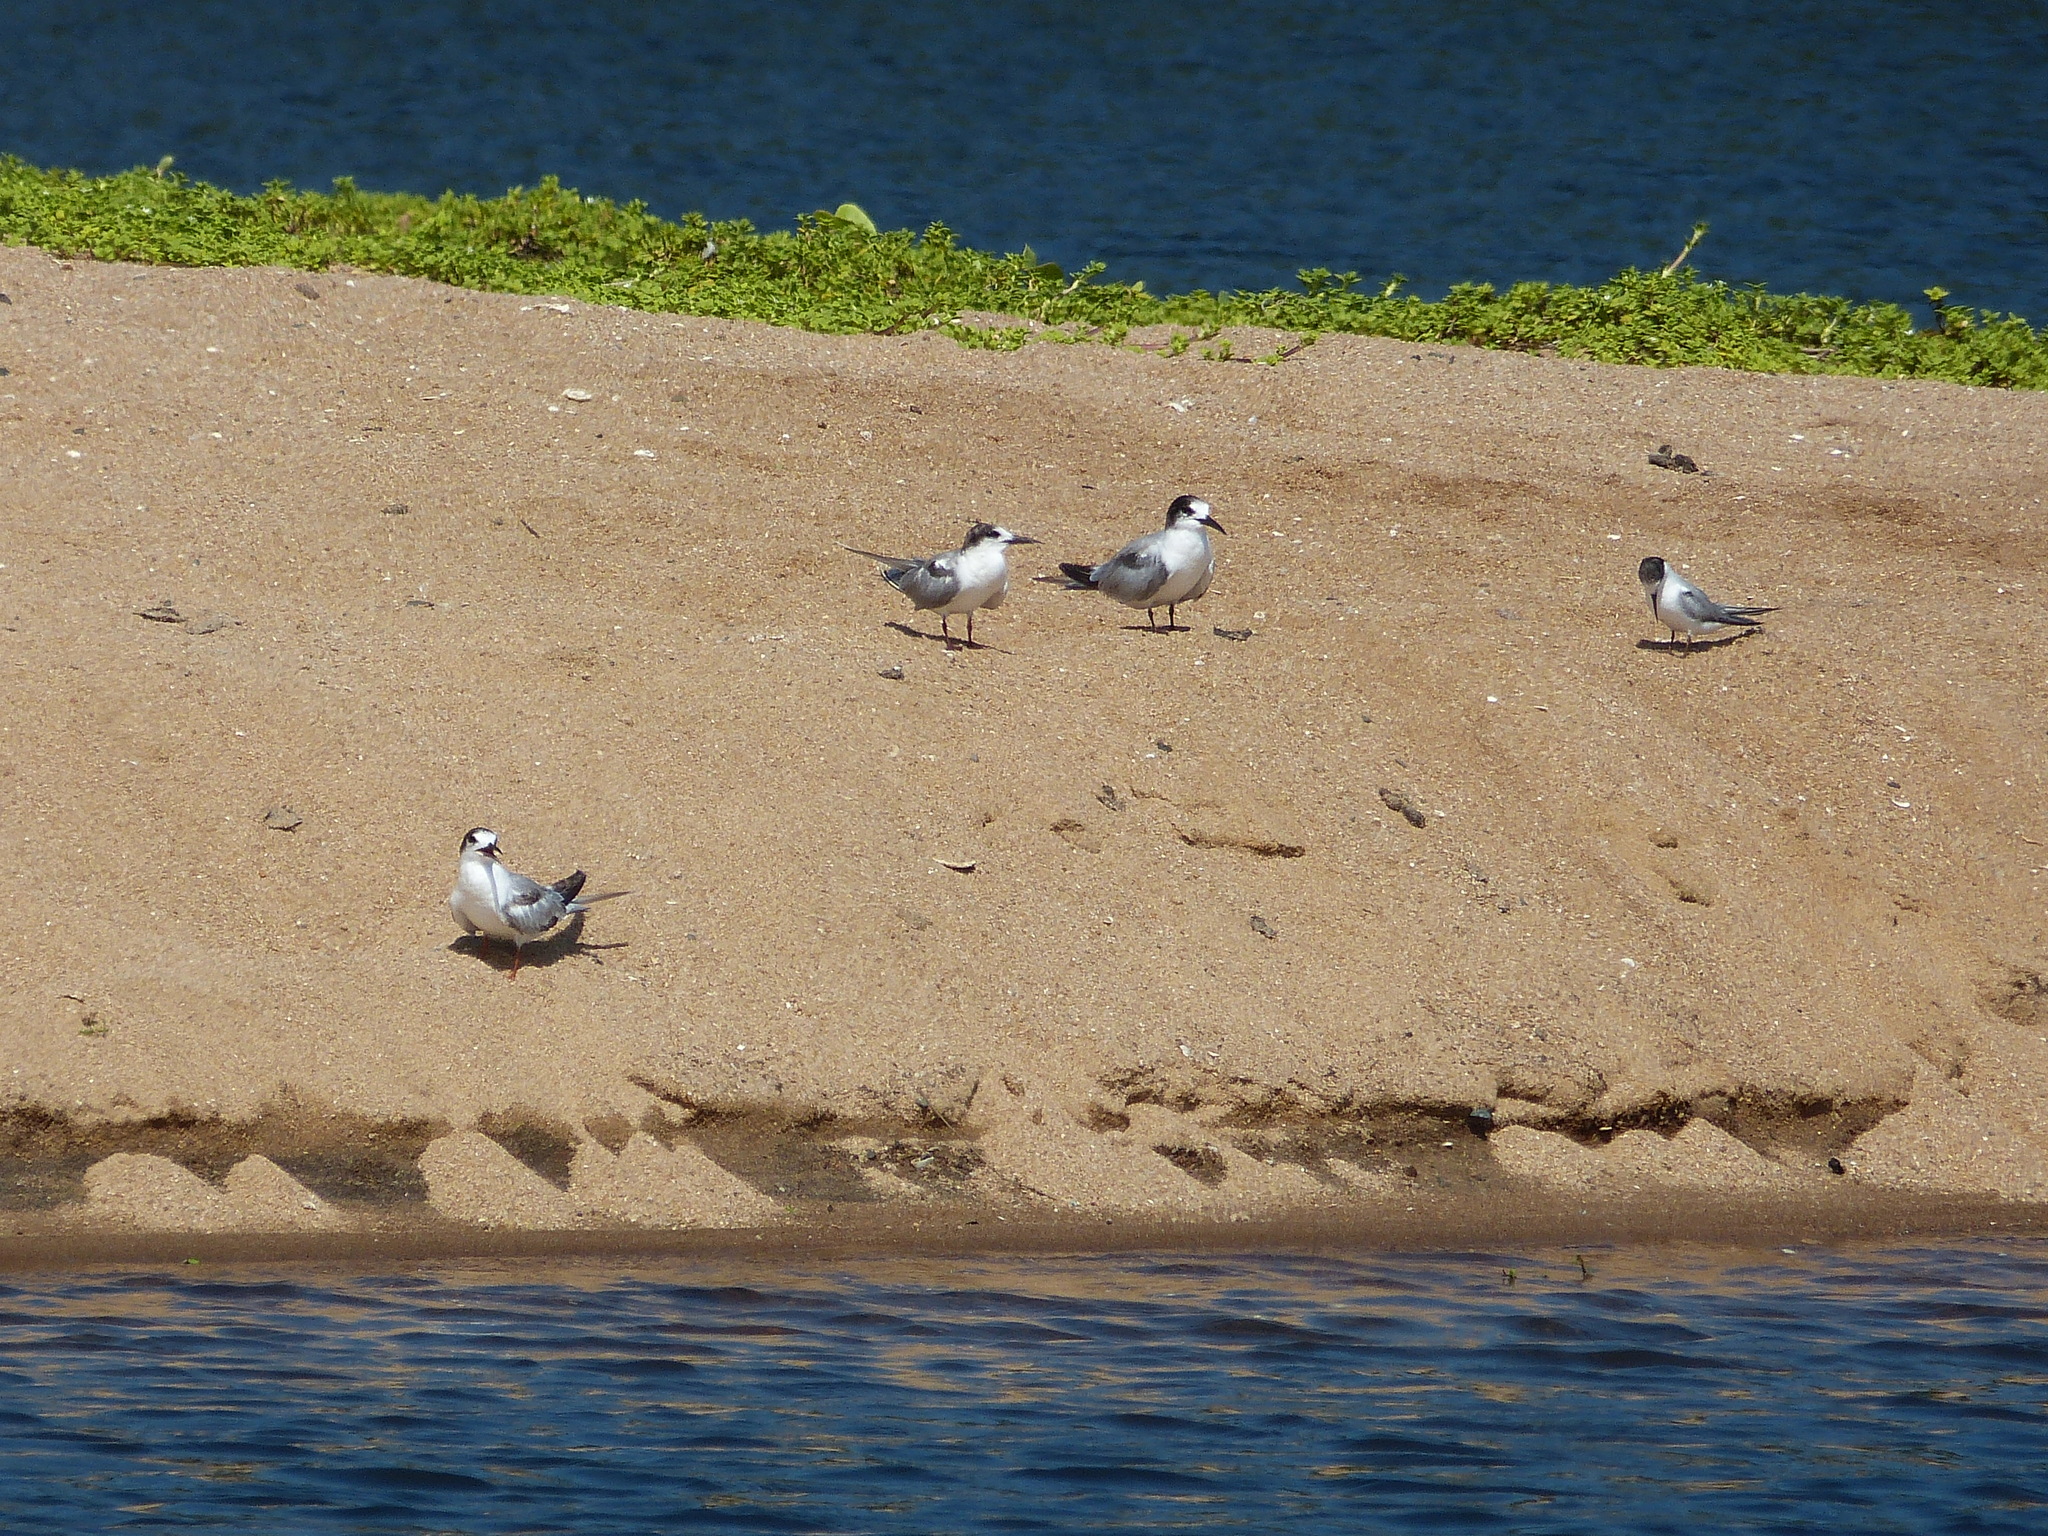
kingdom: Animalia
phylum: Chordata
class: Aves
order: Charadriiformes
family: Laridae
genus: Sterna
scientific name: Sterna hirundo
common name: Common tern
